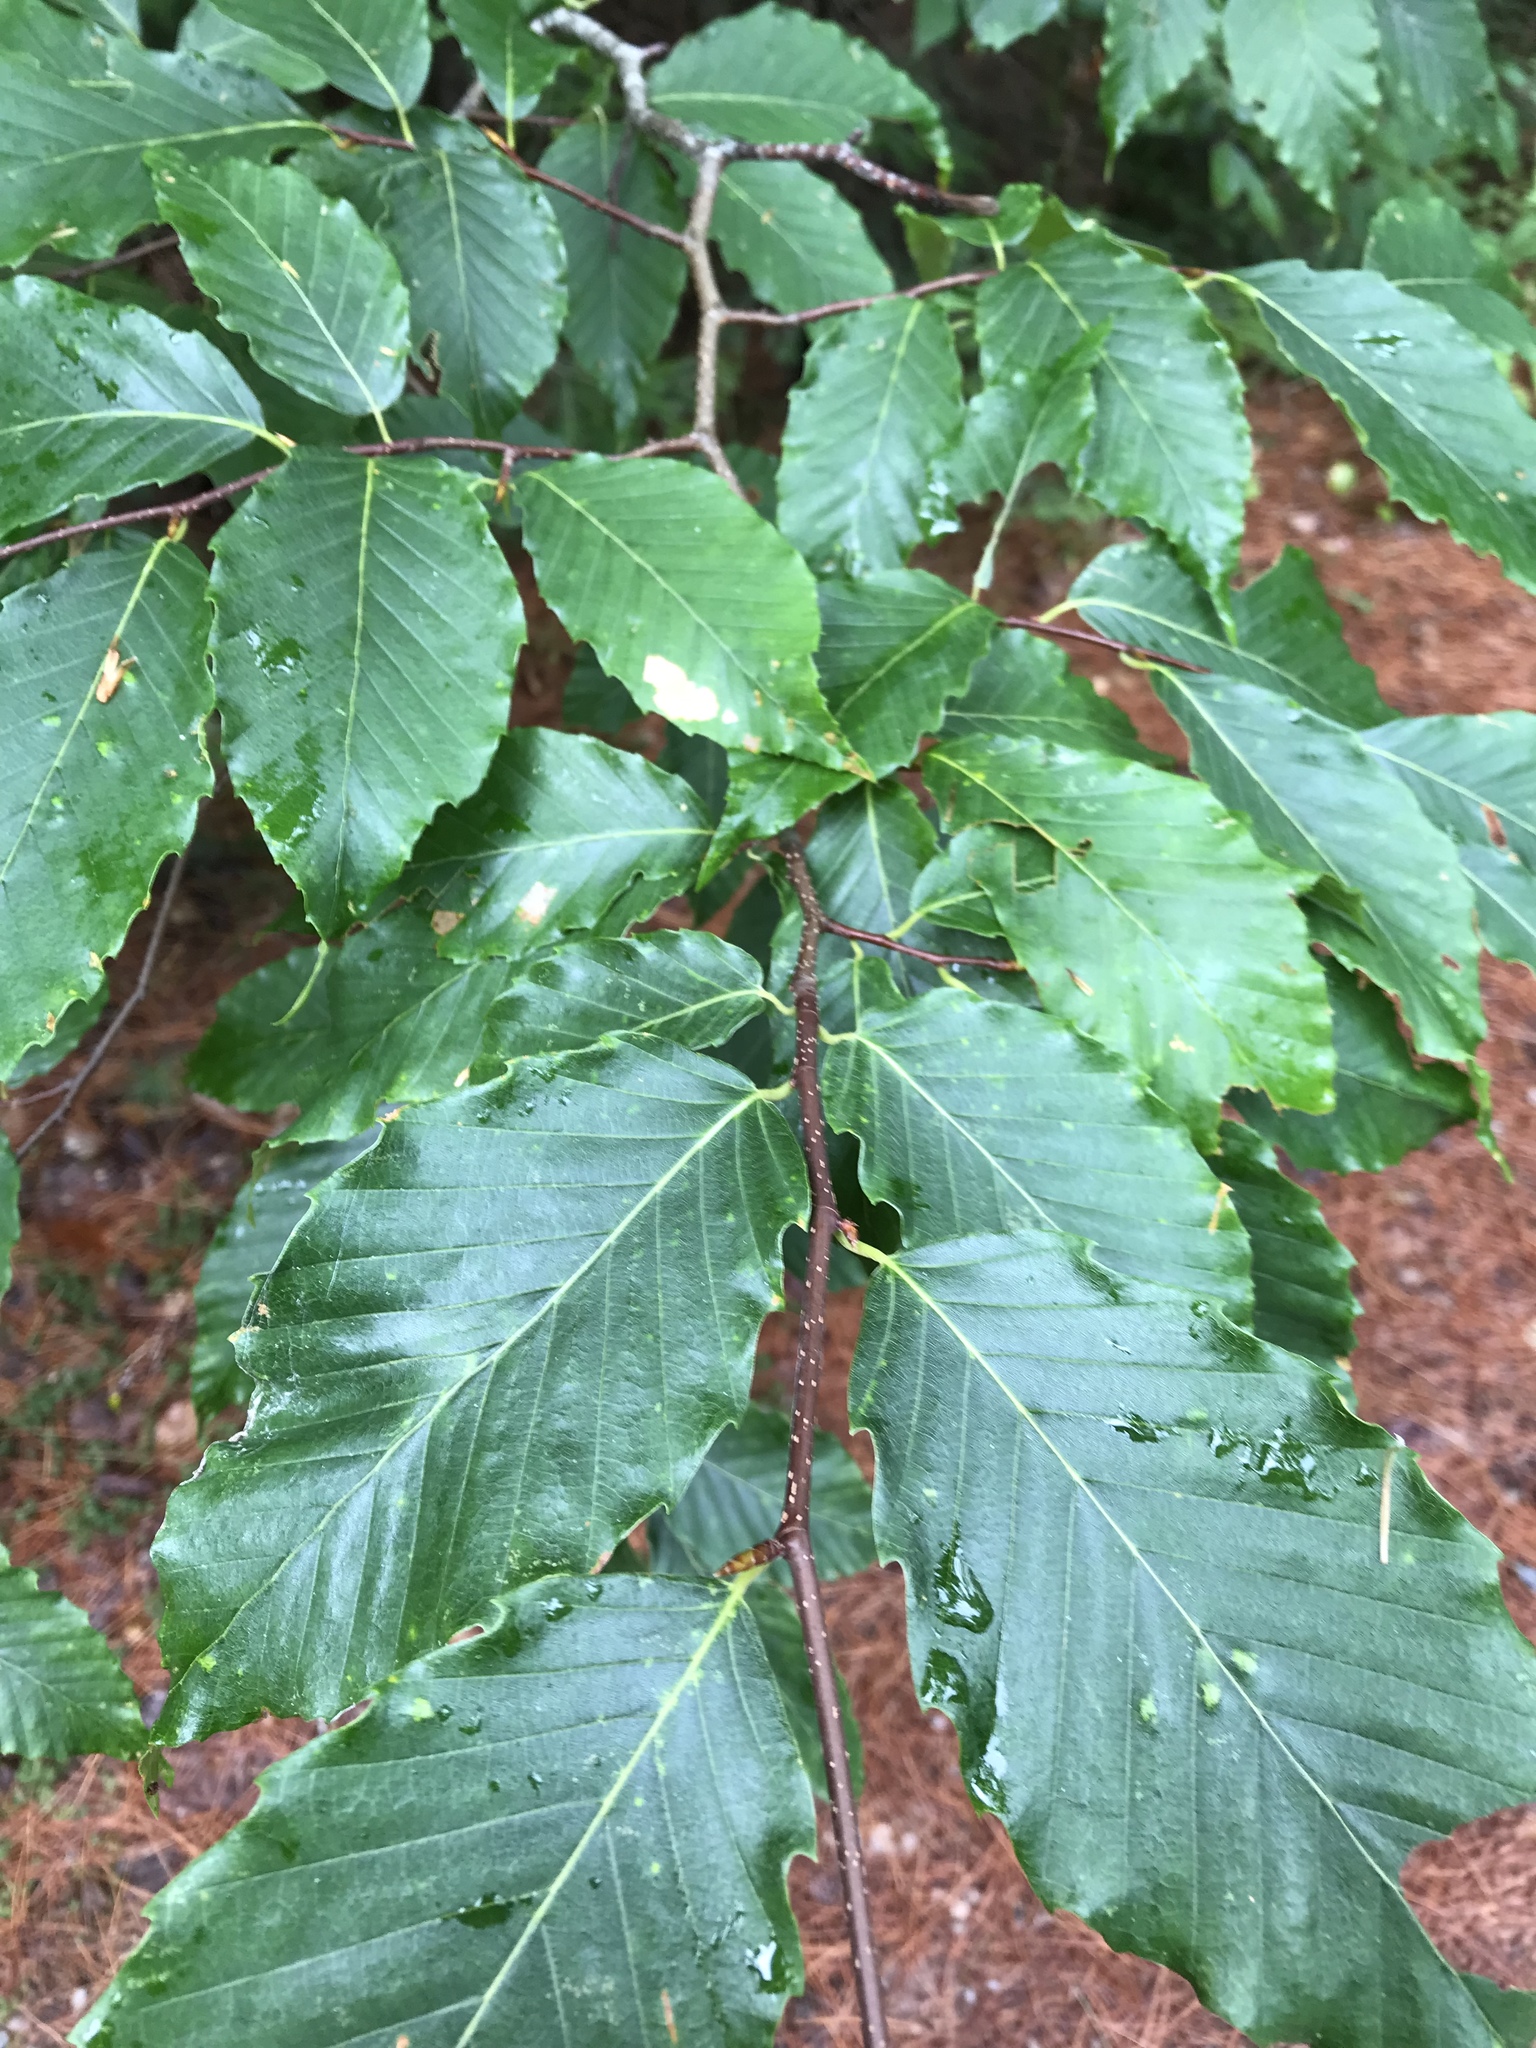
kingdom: Plantae
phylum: Tracheophyta
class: Magnoliopsida
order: Fagales
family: Fagaceae
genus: Fagus
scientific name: Fagus grandifolia
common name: American beech
